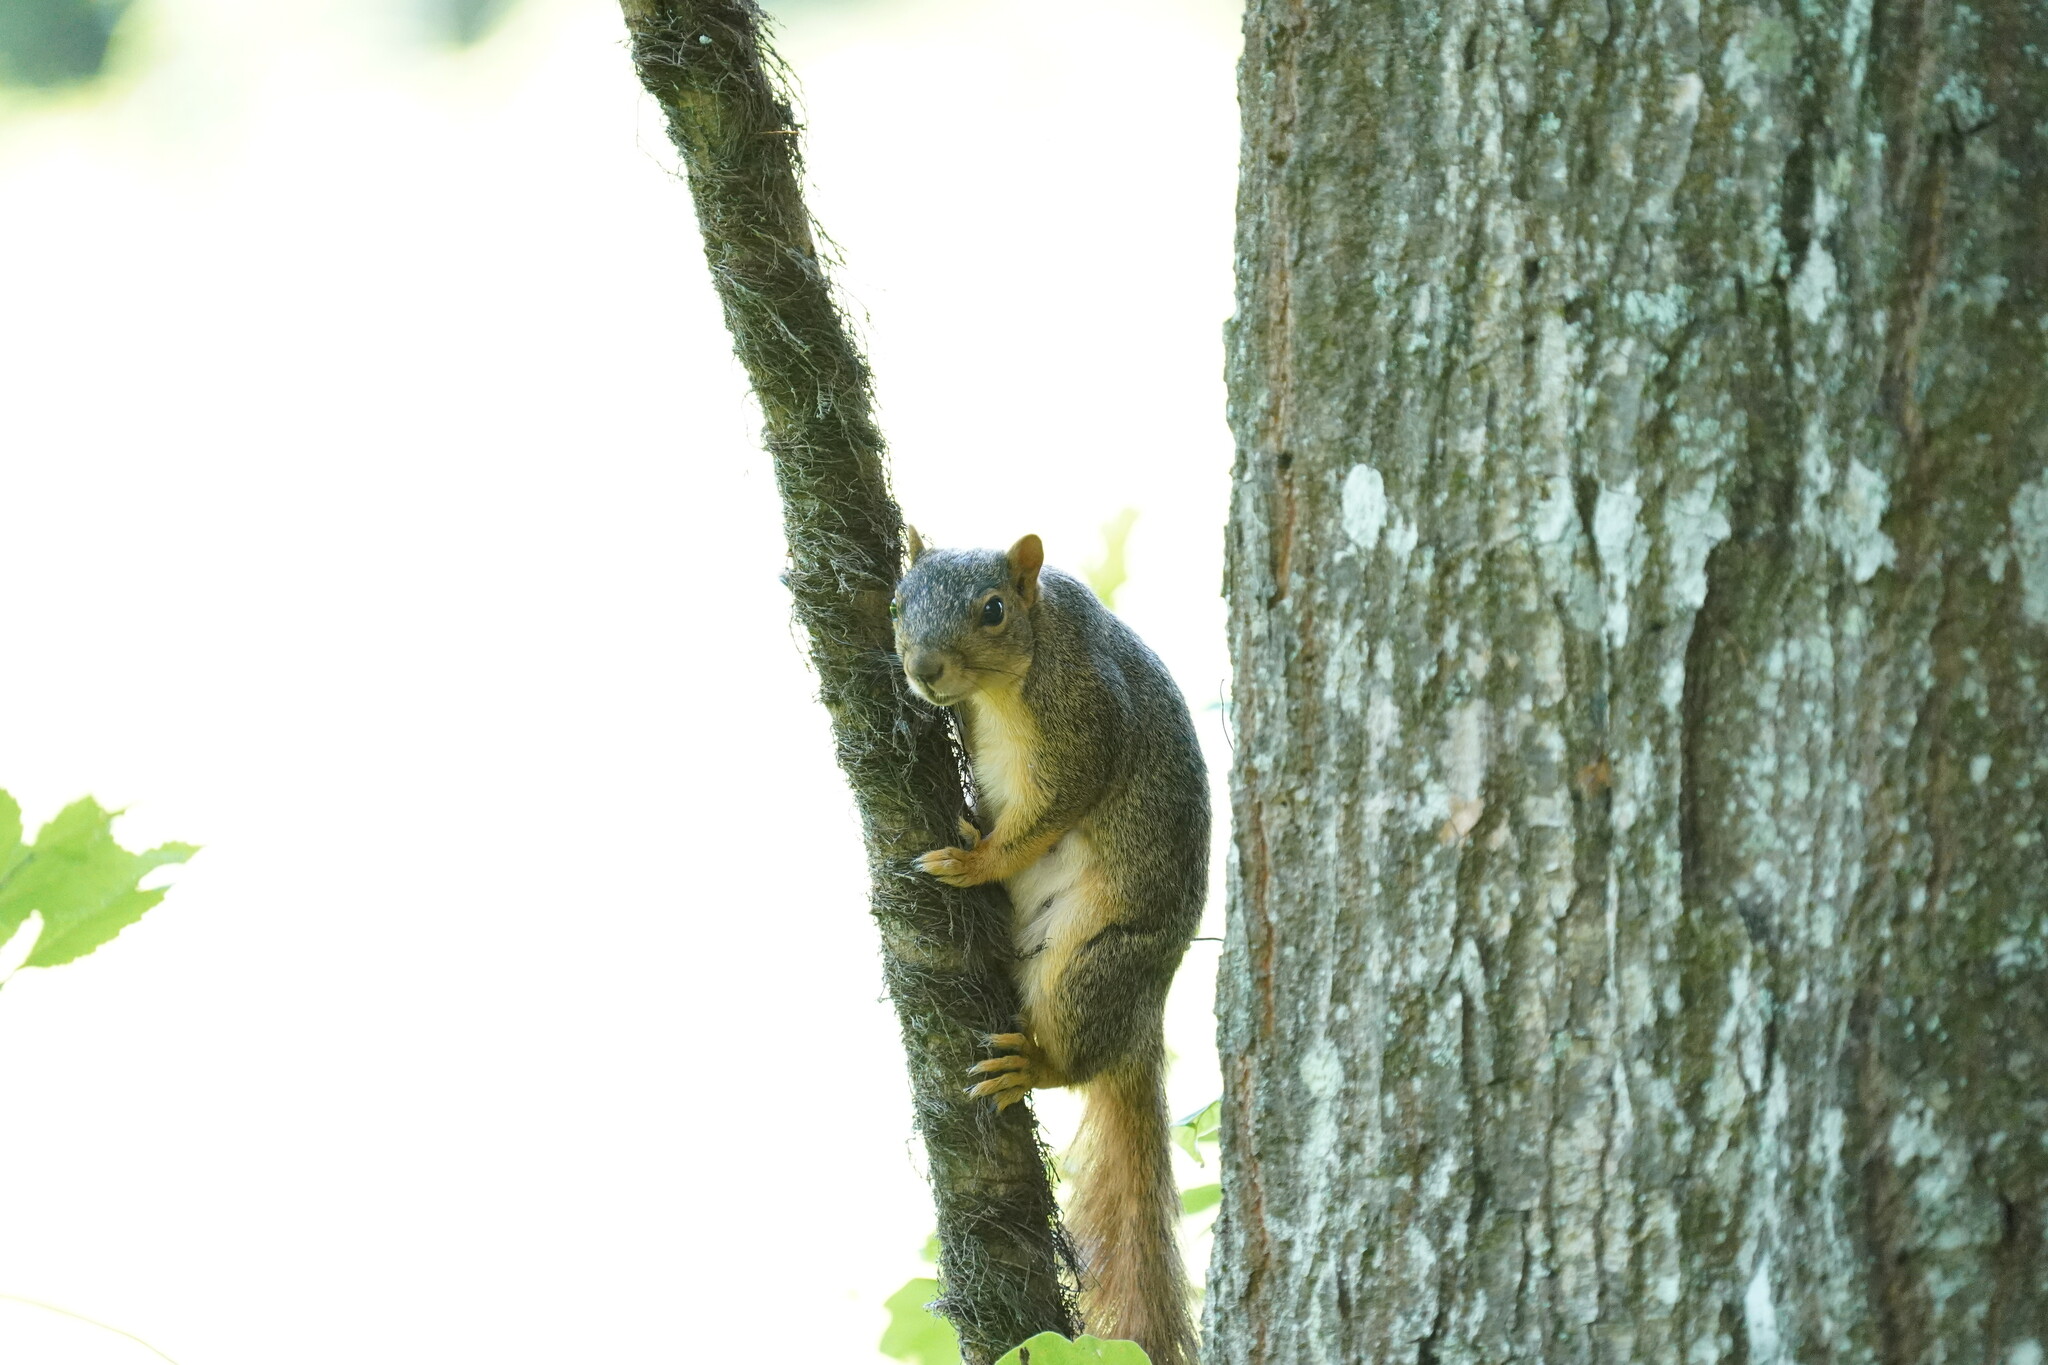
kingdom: Animalia
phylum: Chordata
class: Mammalia
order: Rodentia
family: Sciuridae
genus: Sciurus
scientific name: Sciurus carolinensis
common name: Eastern gray squirrel
